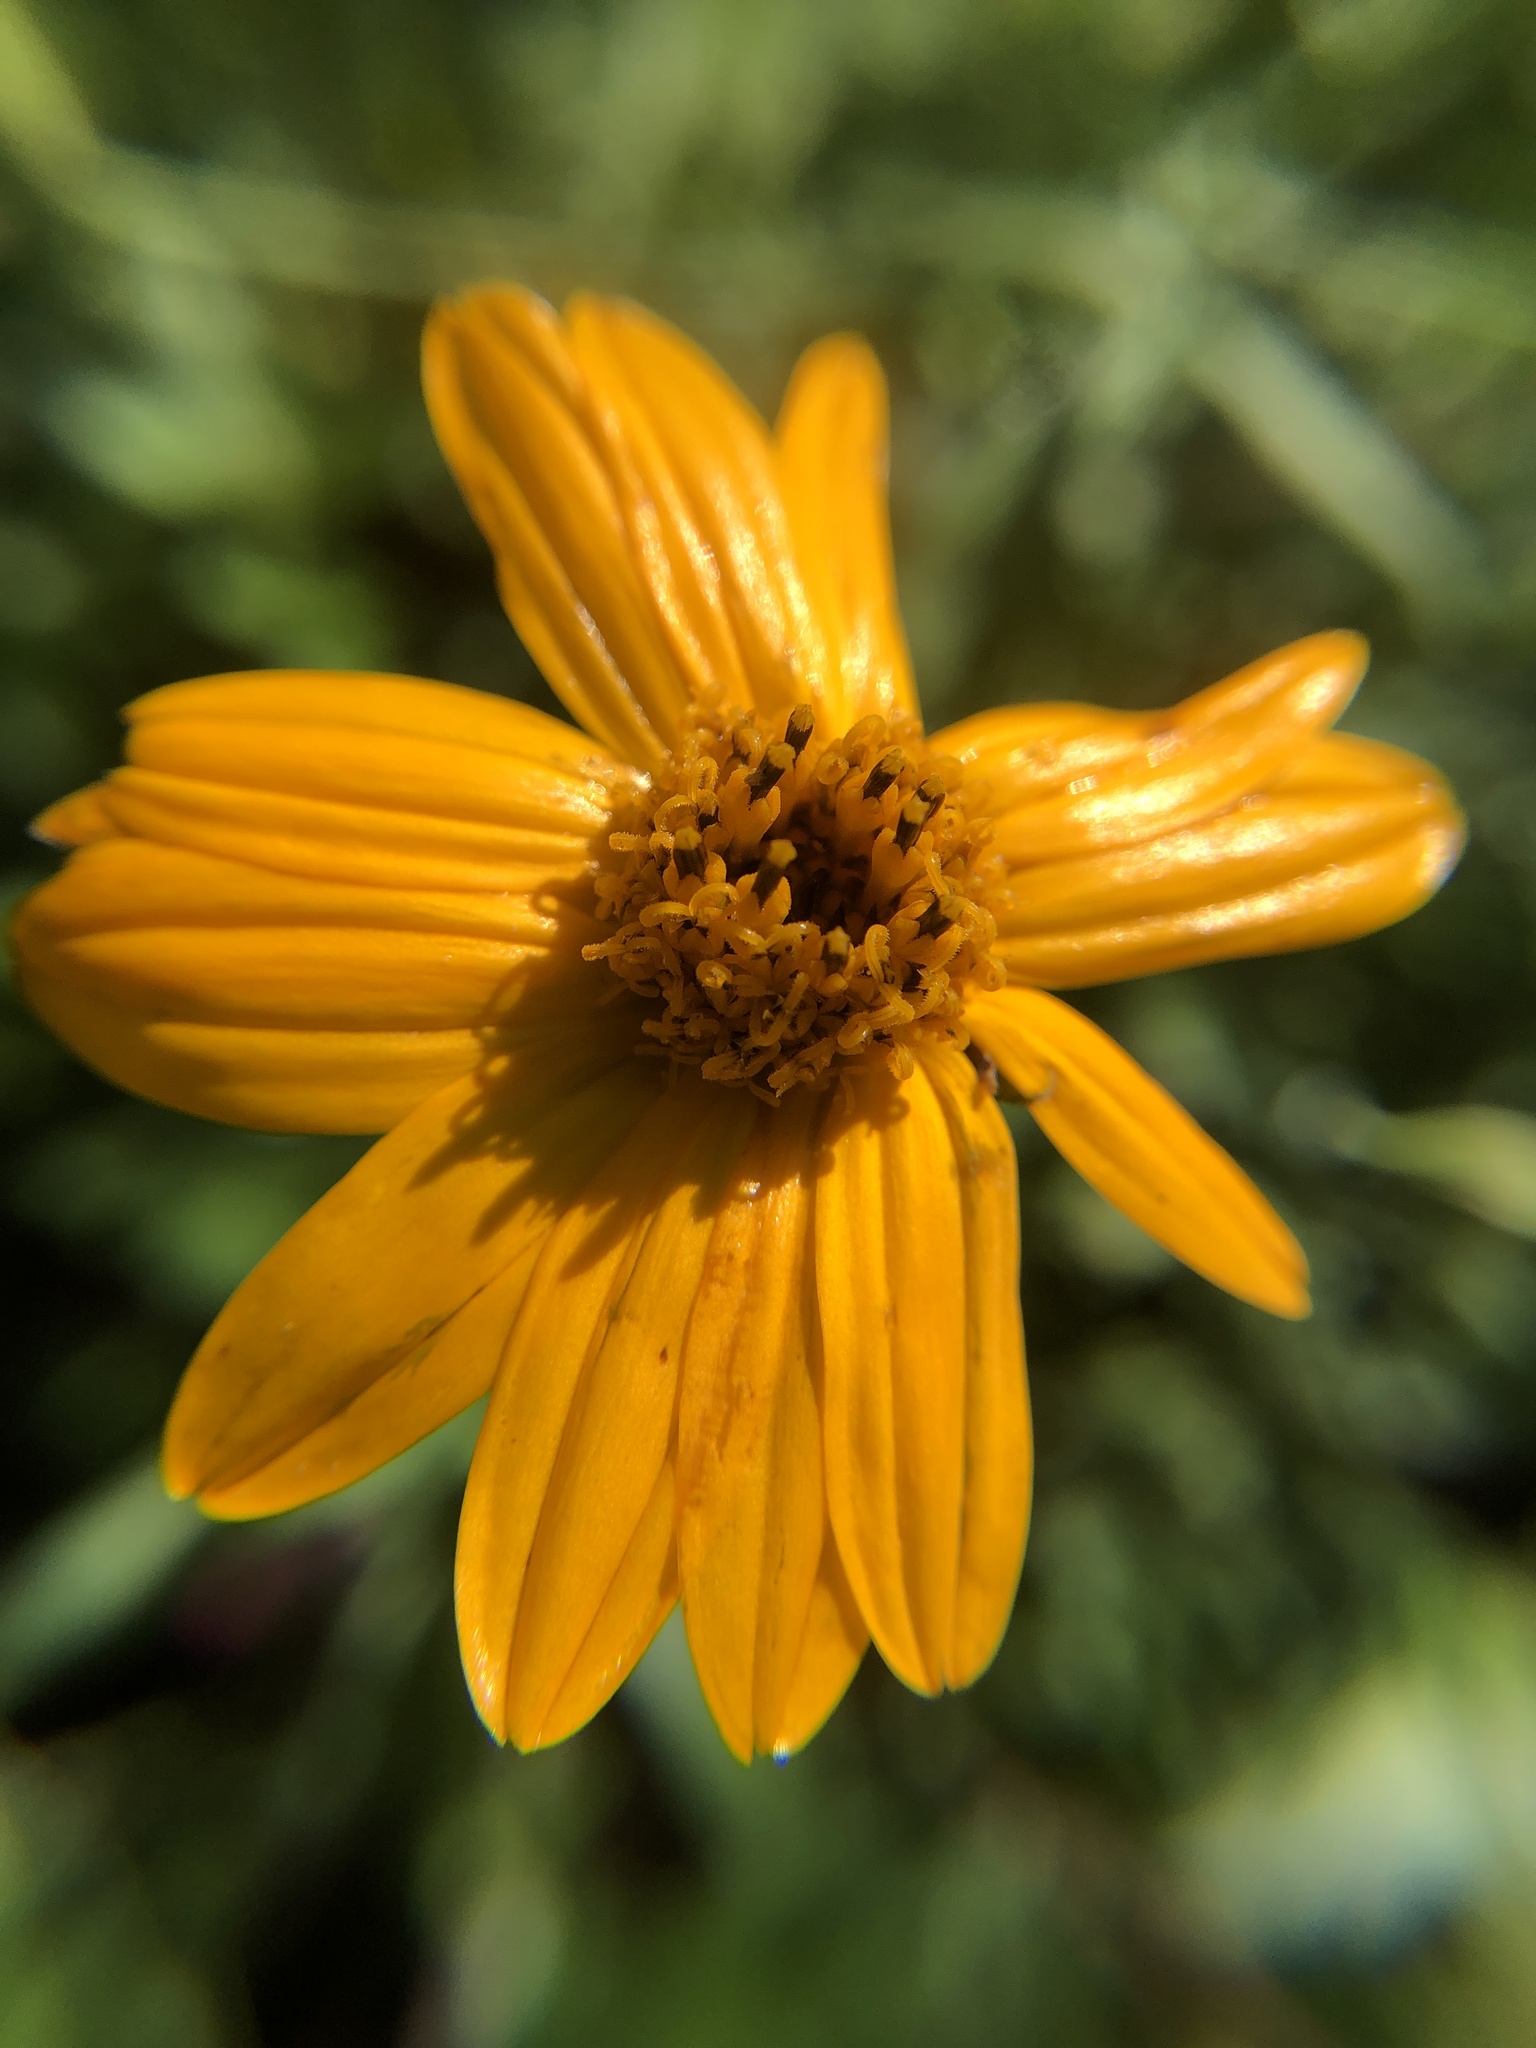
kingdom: Plantae
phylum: Tracheophyta
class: Magnoliopsida
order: Asterales
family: Asteraceae
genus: Wedelia
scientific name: Wedelia acapulcensis
